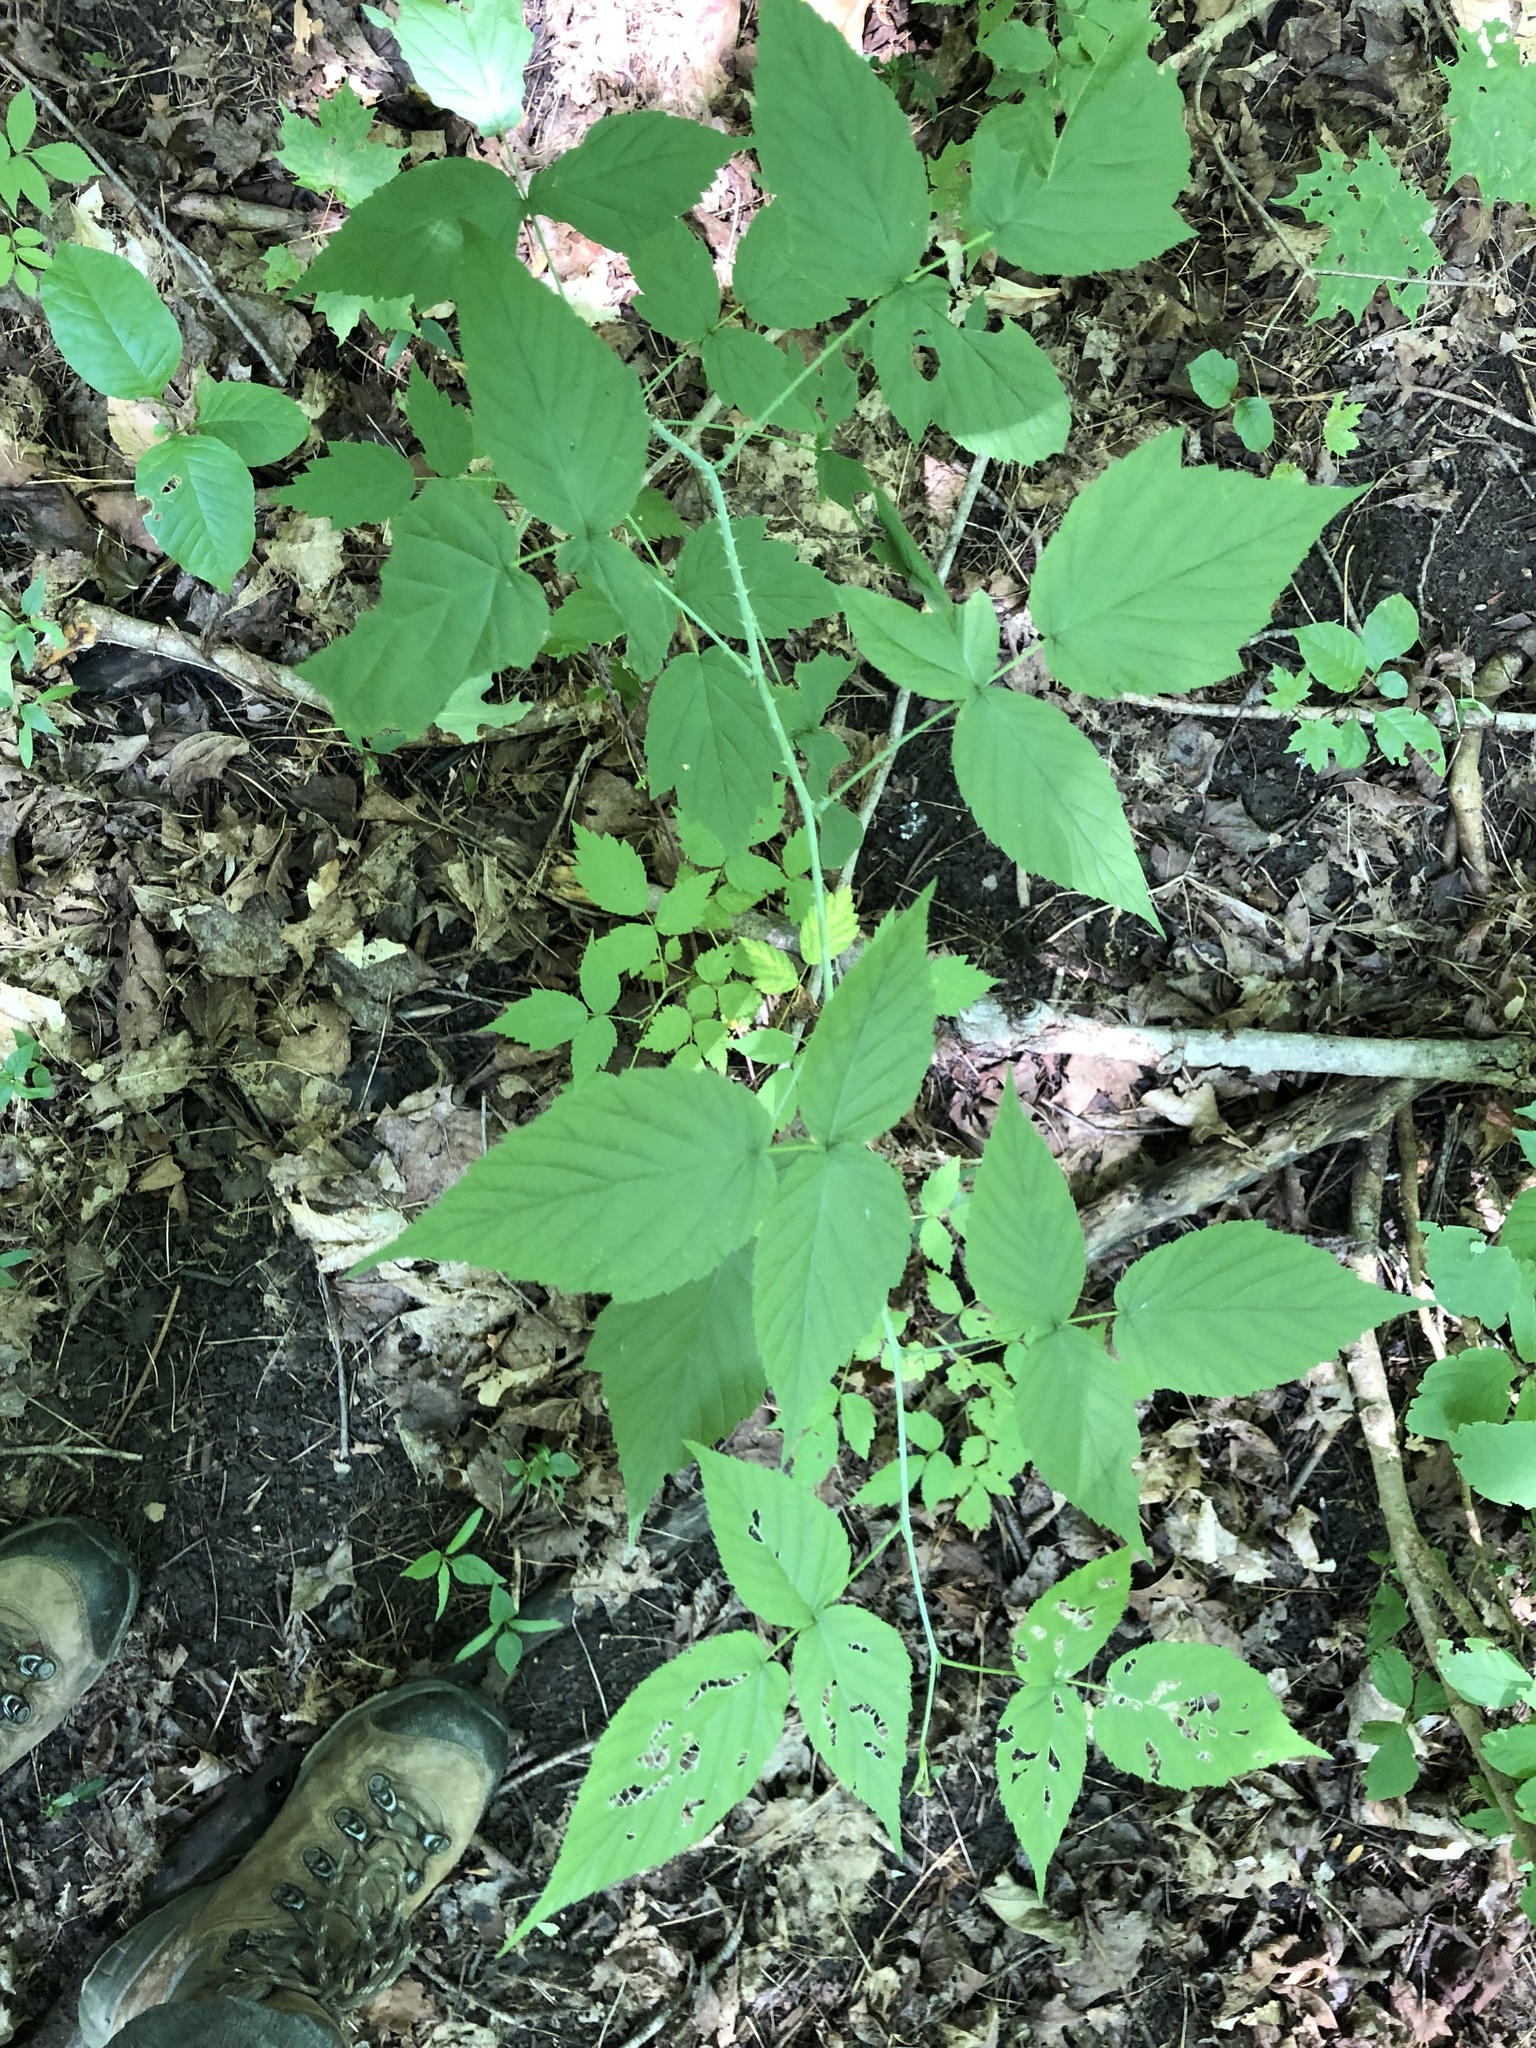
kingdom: Plantae
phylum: Tracheophyta
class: Magnoliopsida
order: Rosales
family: Rosaceae
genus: Rubus
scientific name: Rubus occidentalis
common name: Black raspberry
